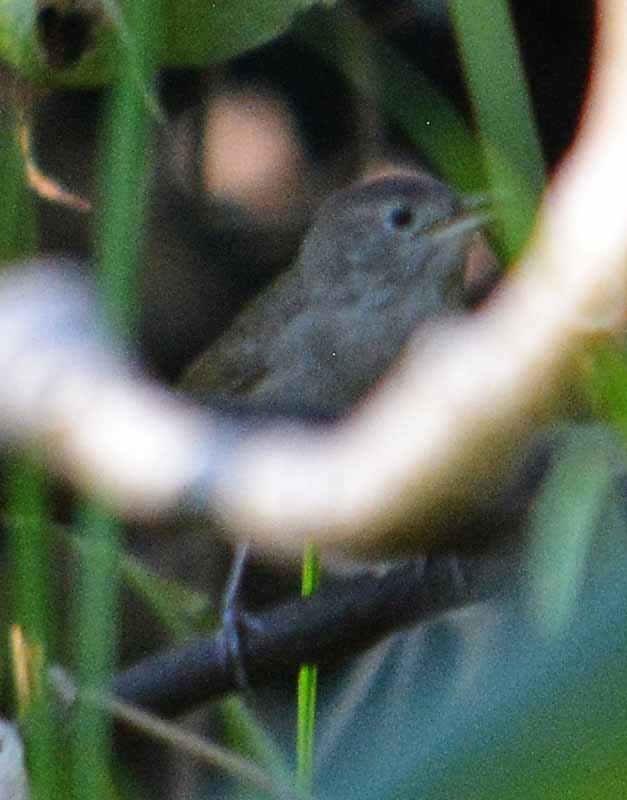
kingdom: Animalia
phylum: Chordata
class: Aves
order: Passeriformes
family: Troglodytidae
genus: Troglodytes
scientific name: Troglodytes aedon
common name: House wren
